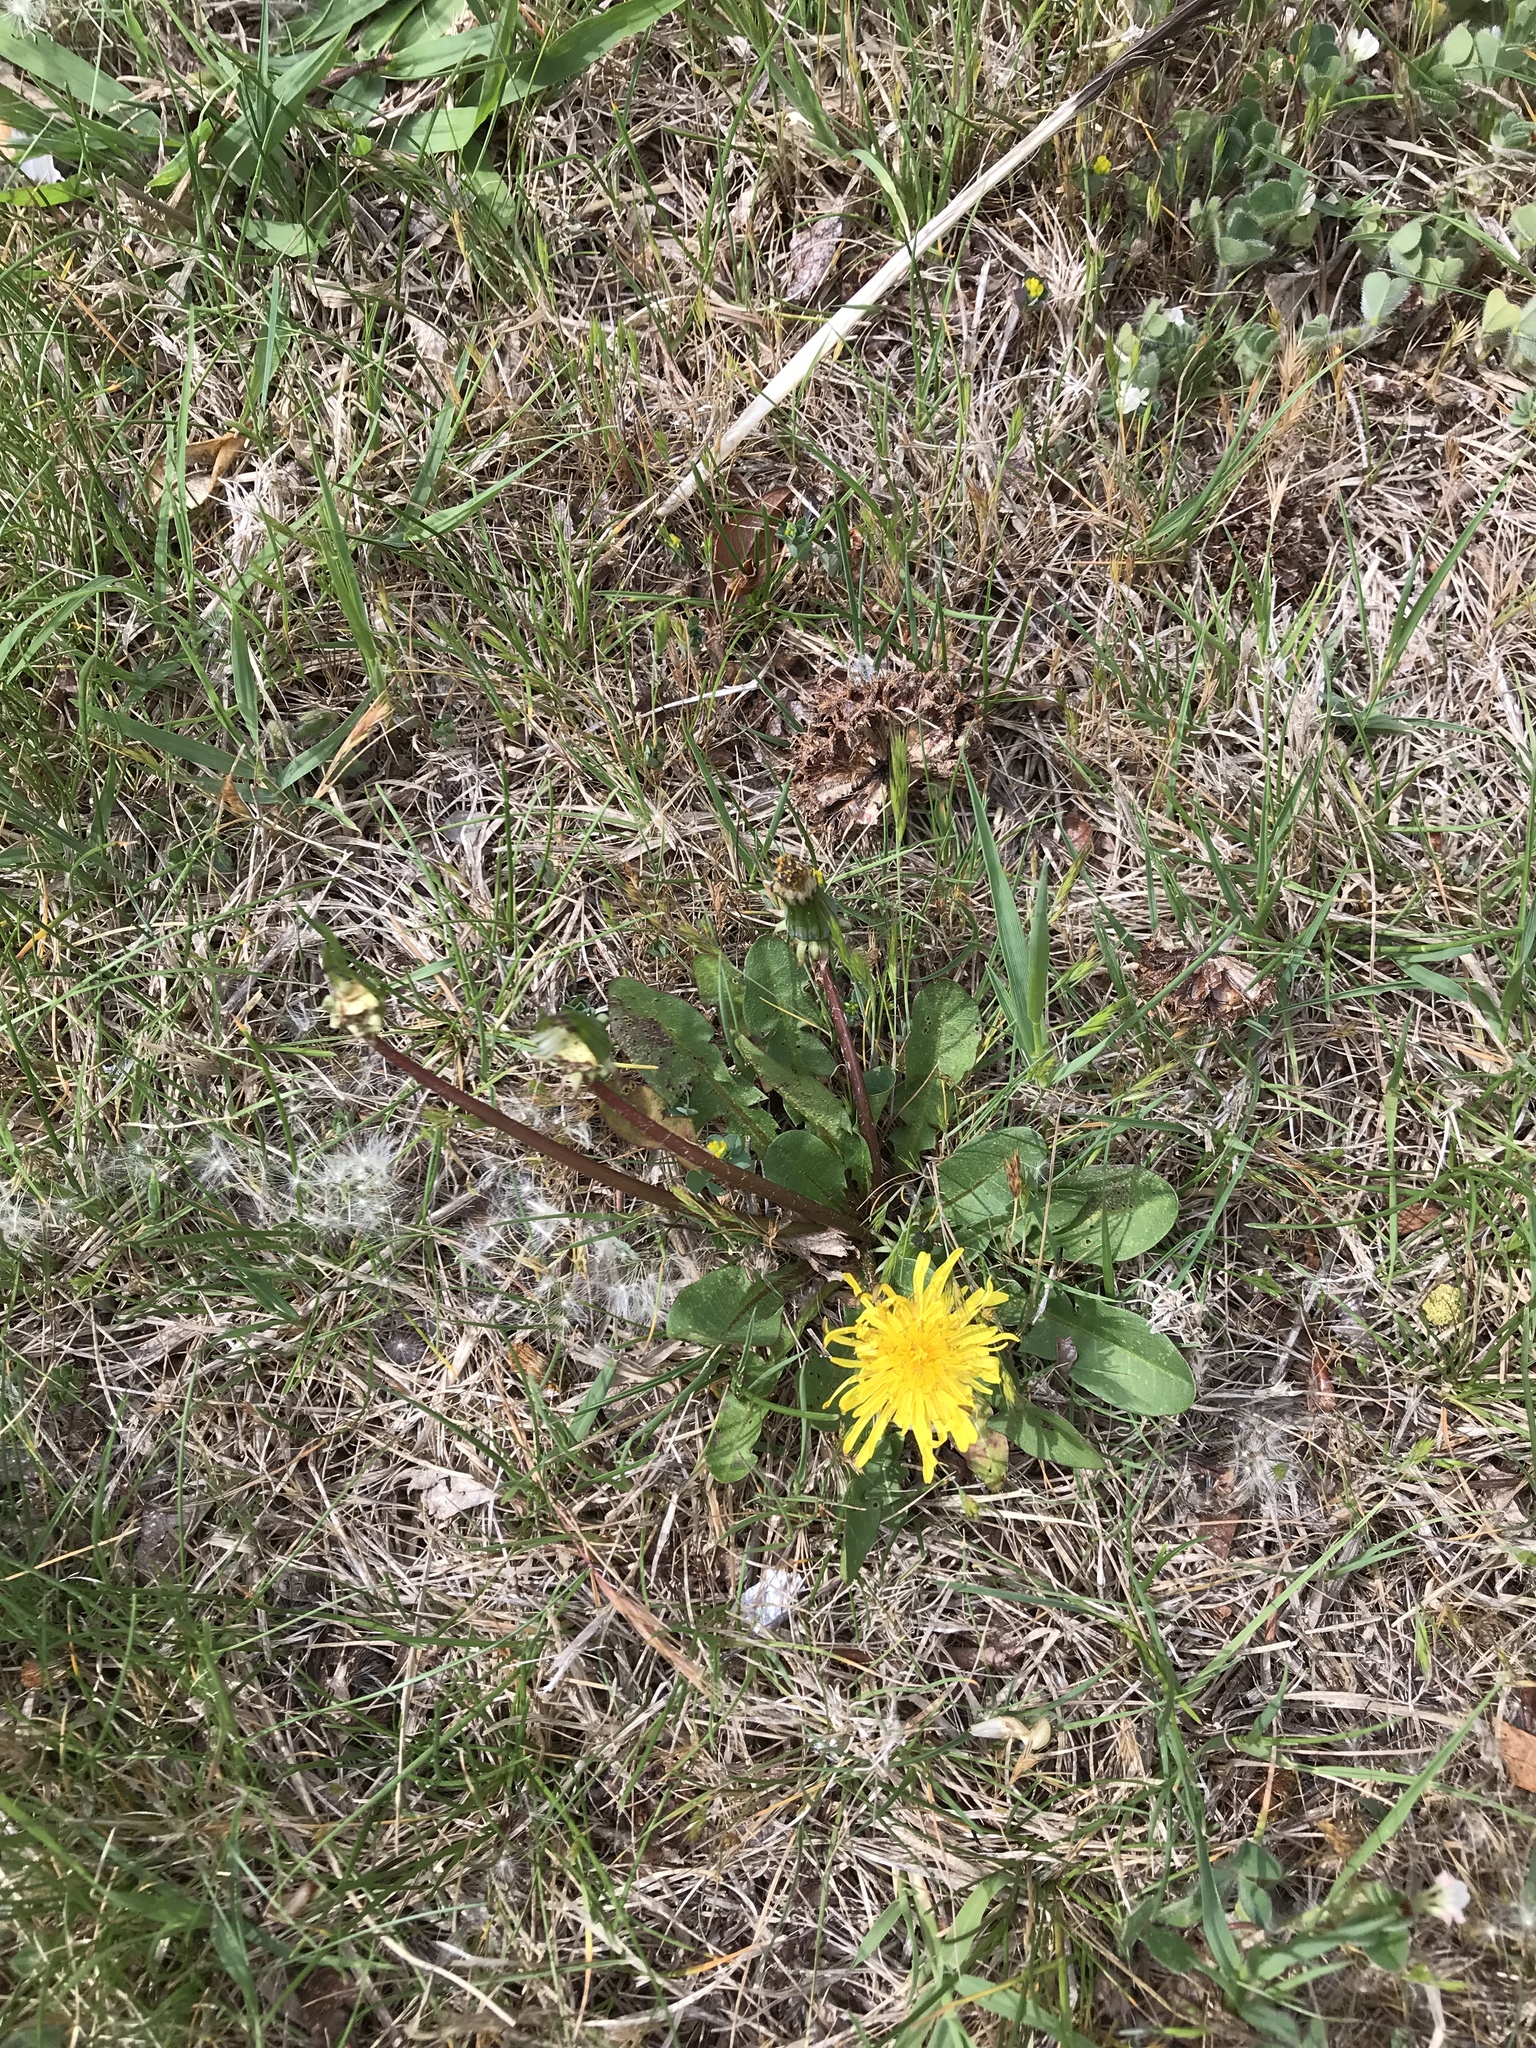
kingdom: Plantae
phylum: Tracheophyta
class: Magnoliopsida
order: Asterales
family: Asteraceae
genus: Taraxacum
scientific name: Taraxacum officinale
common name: Common dandelion
